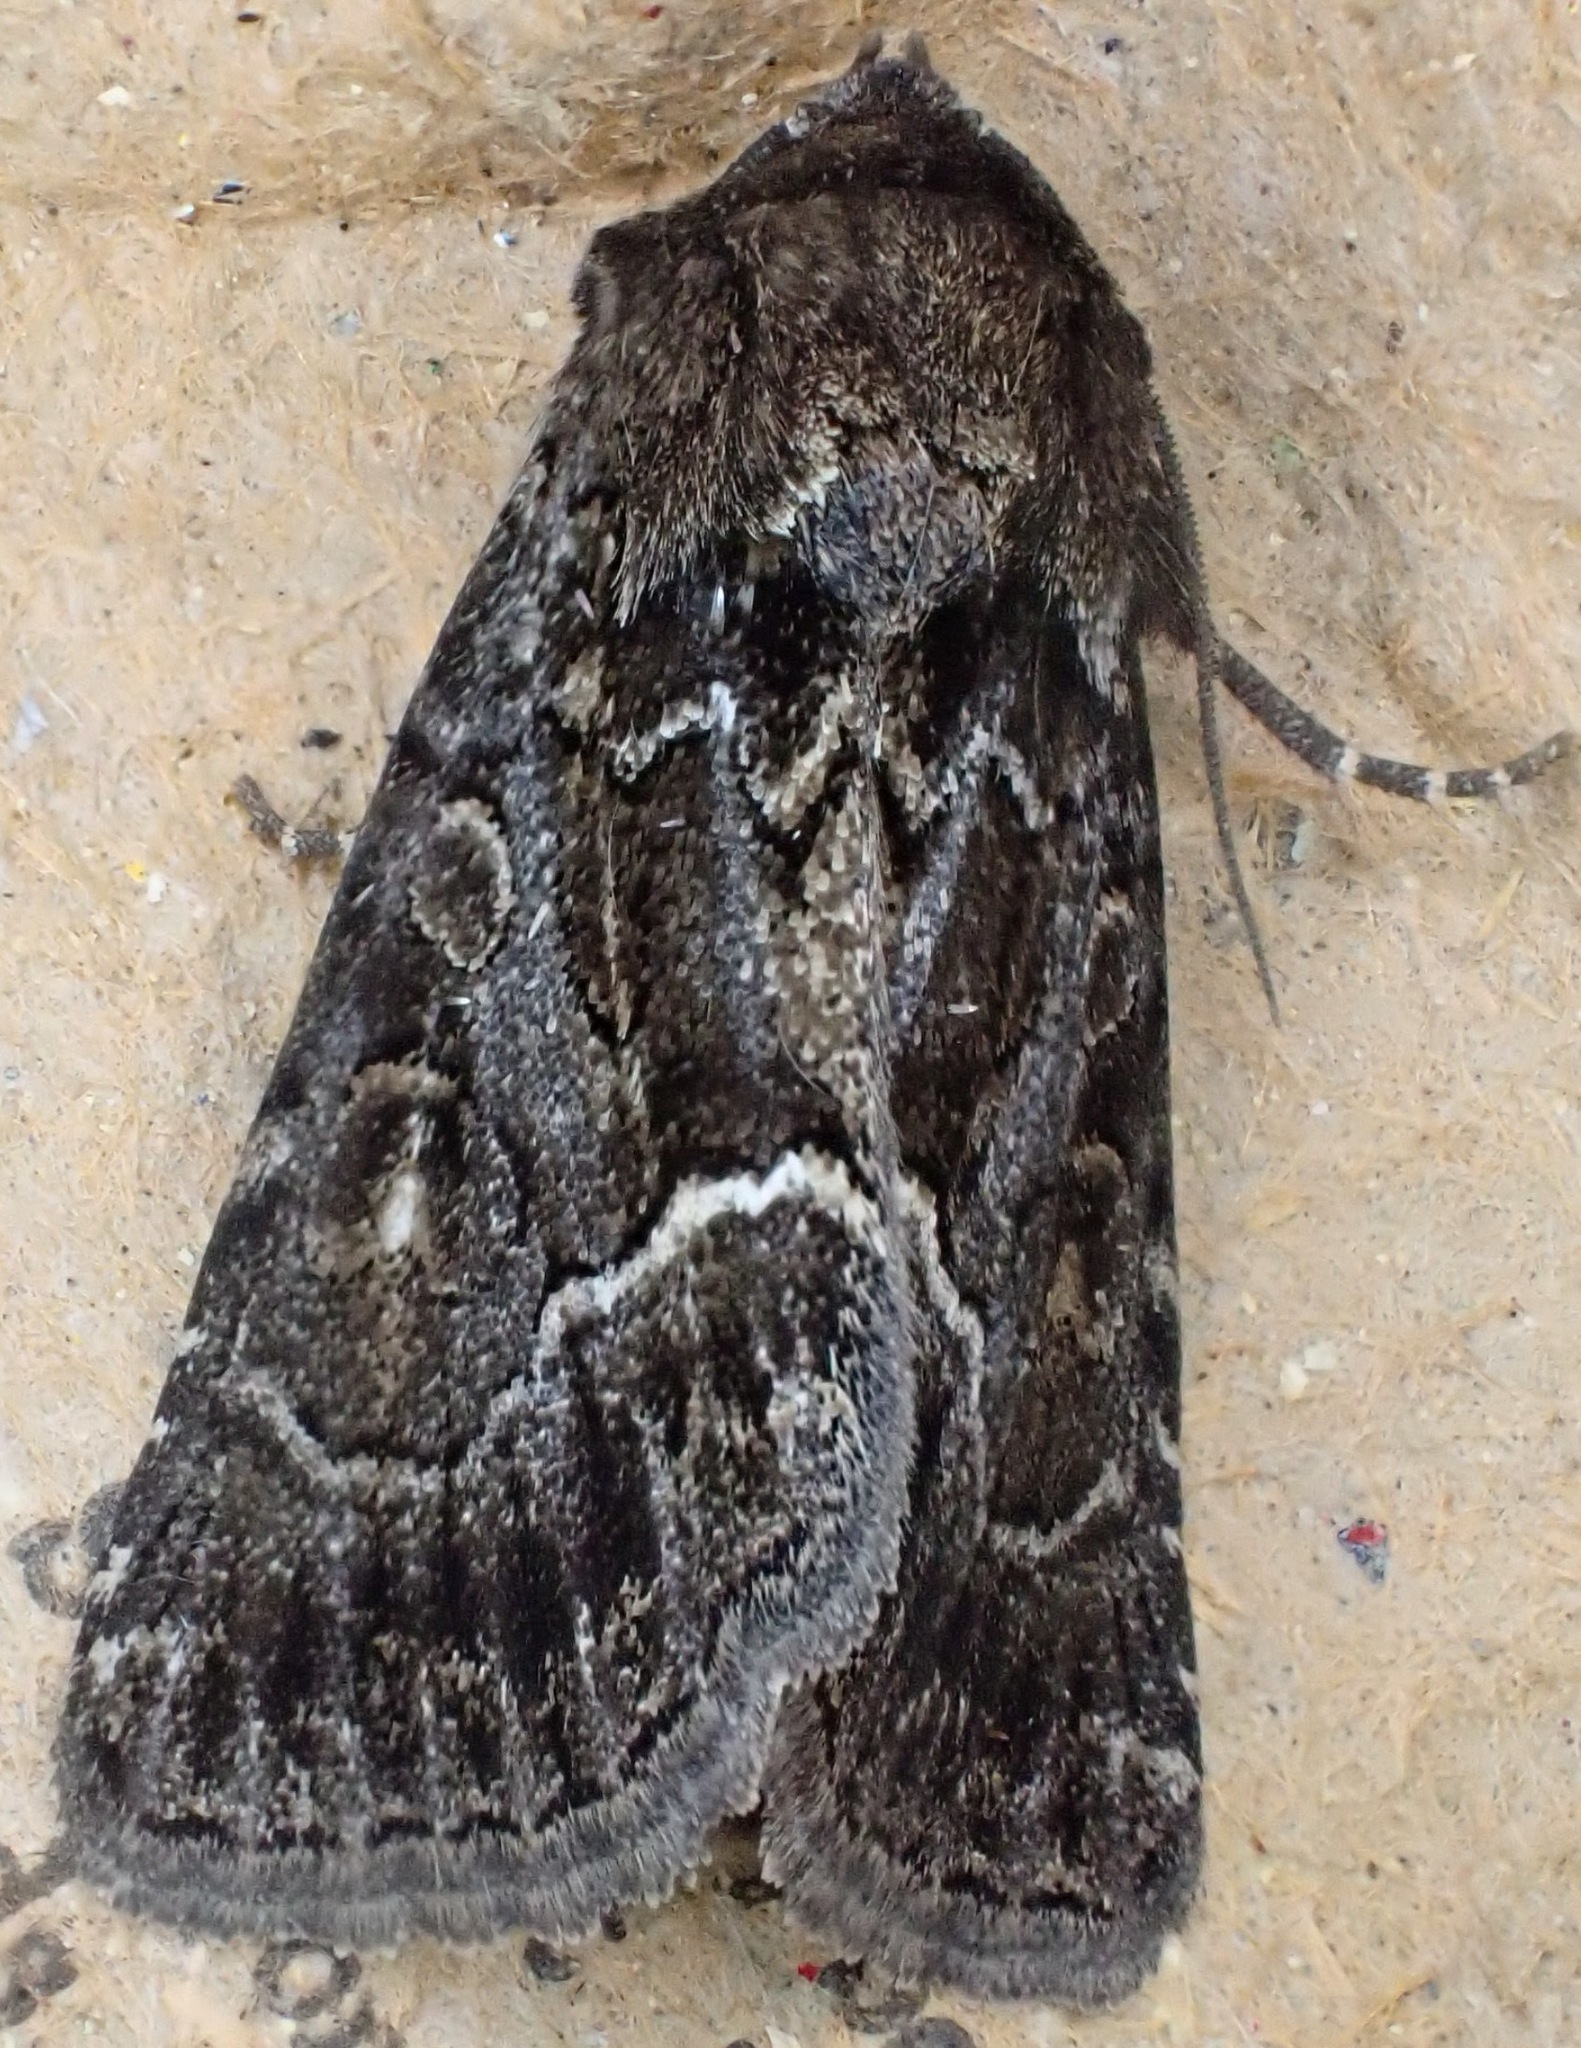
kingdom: Animalia
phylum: Arthropoda
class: Insecta
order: Lepidoptera
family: Noctuidae
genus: Thalpophila
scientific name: Thalpophila matura
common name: Straw underwing
